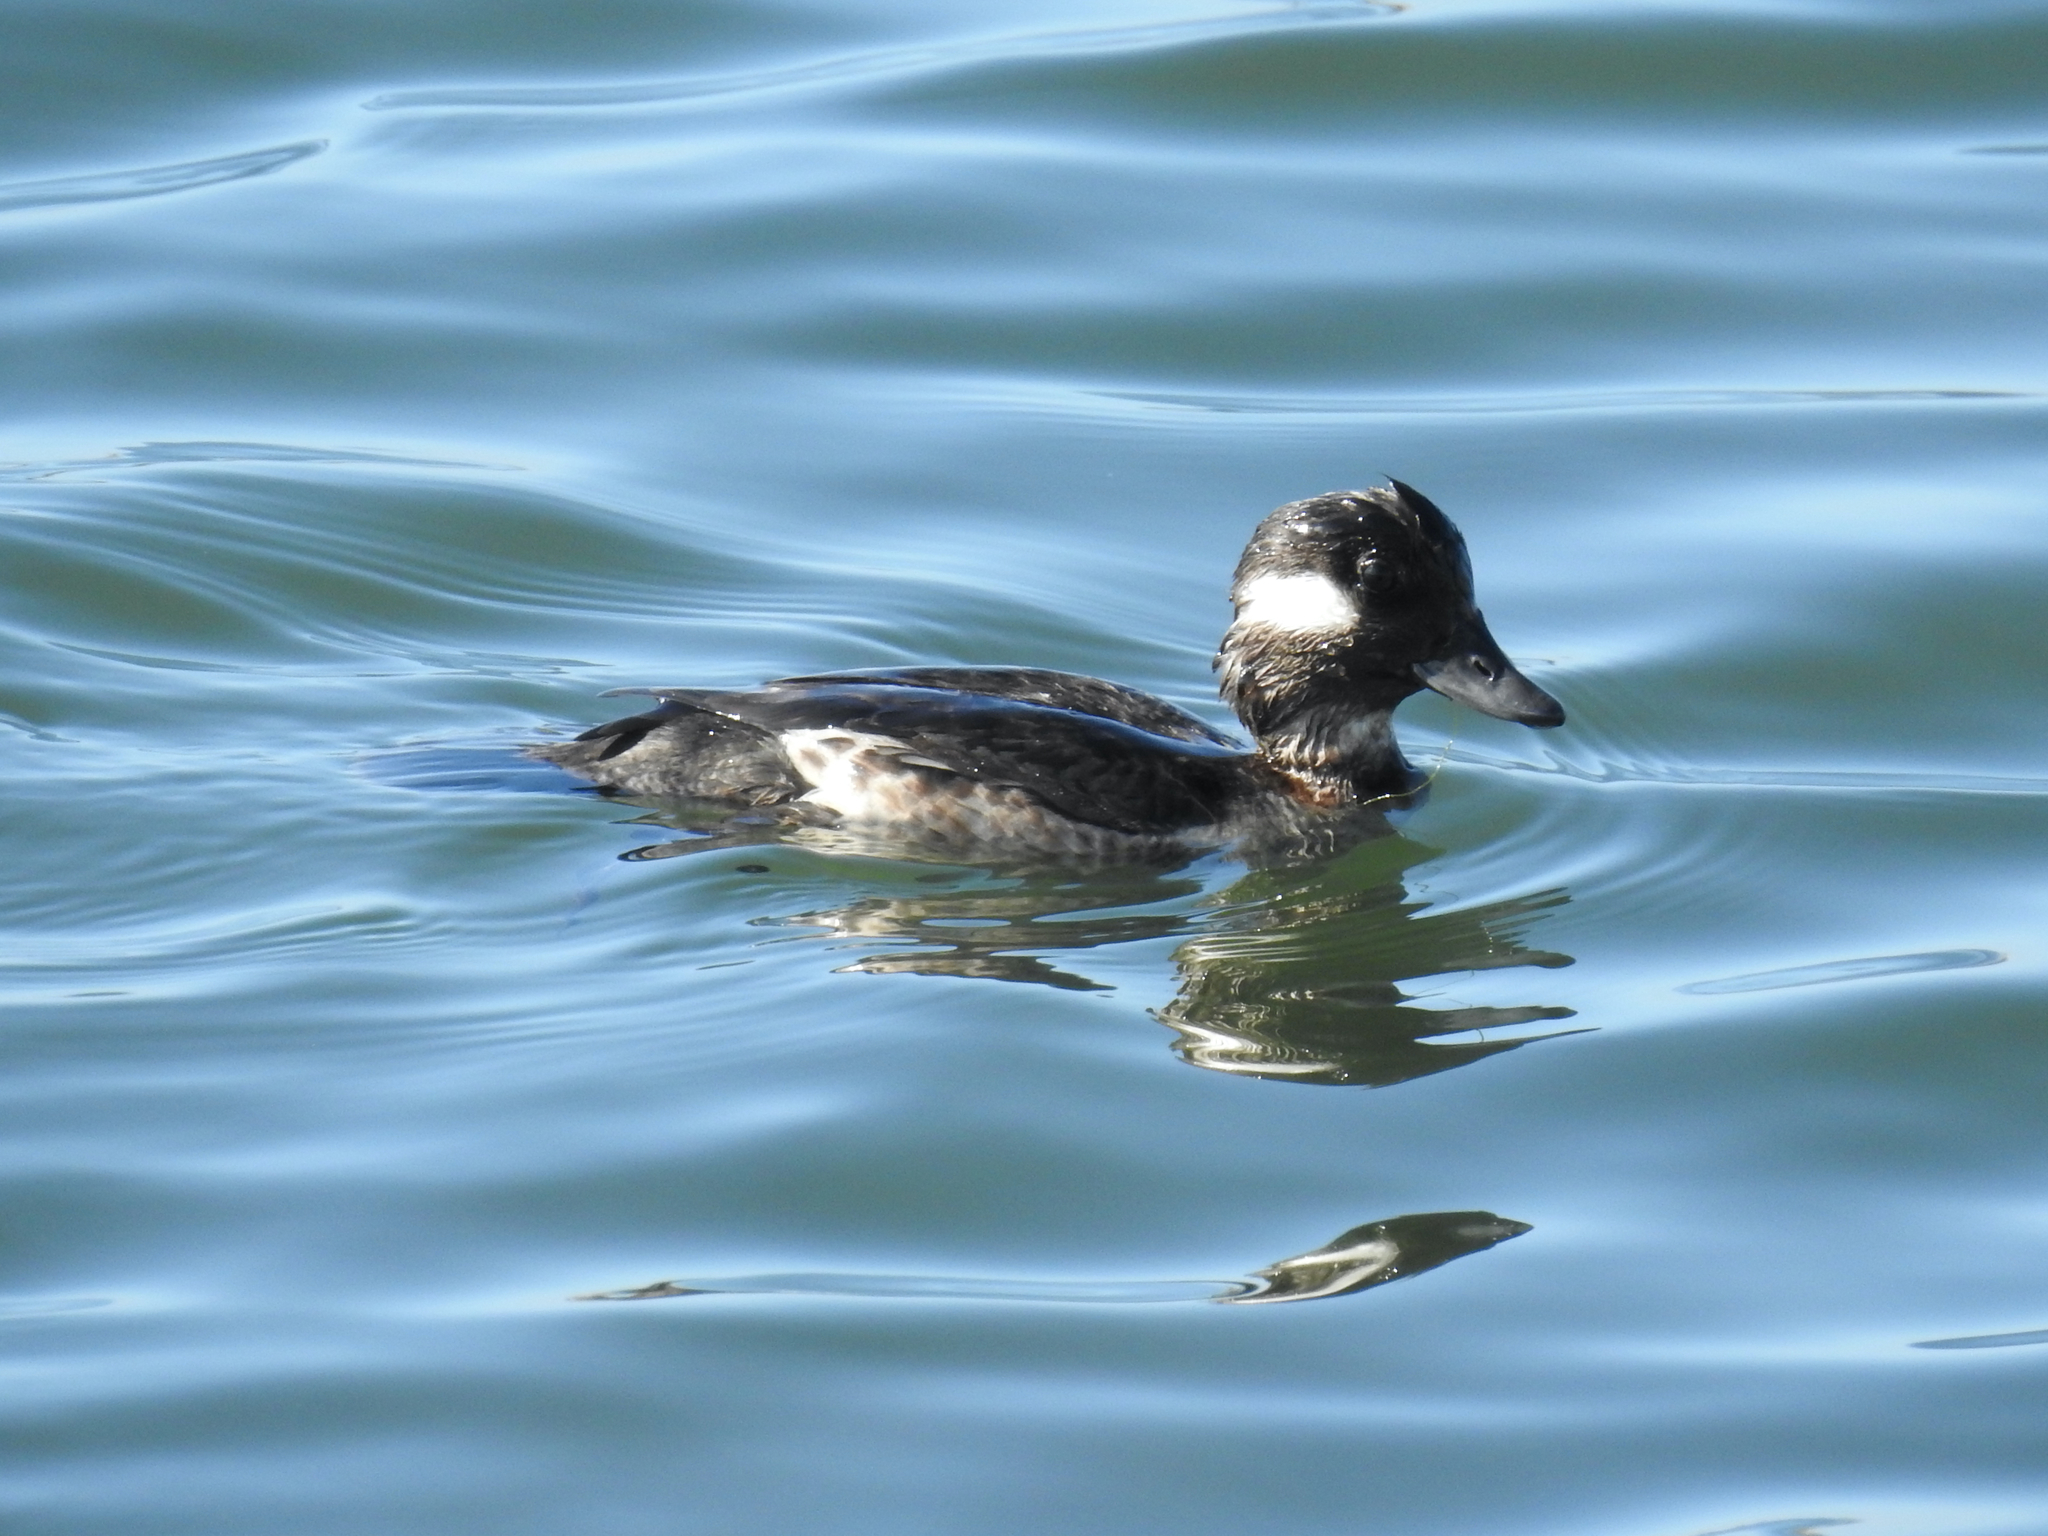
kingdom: Animalia
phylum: Chordata
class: Aves
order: Anseriformes
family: Anatidae
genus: Bucephala
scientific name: Bucephala albeola
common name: Bufflehead
